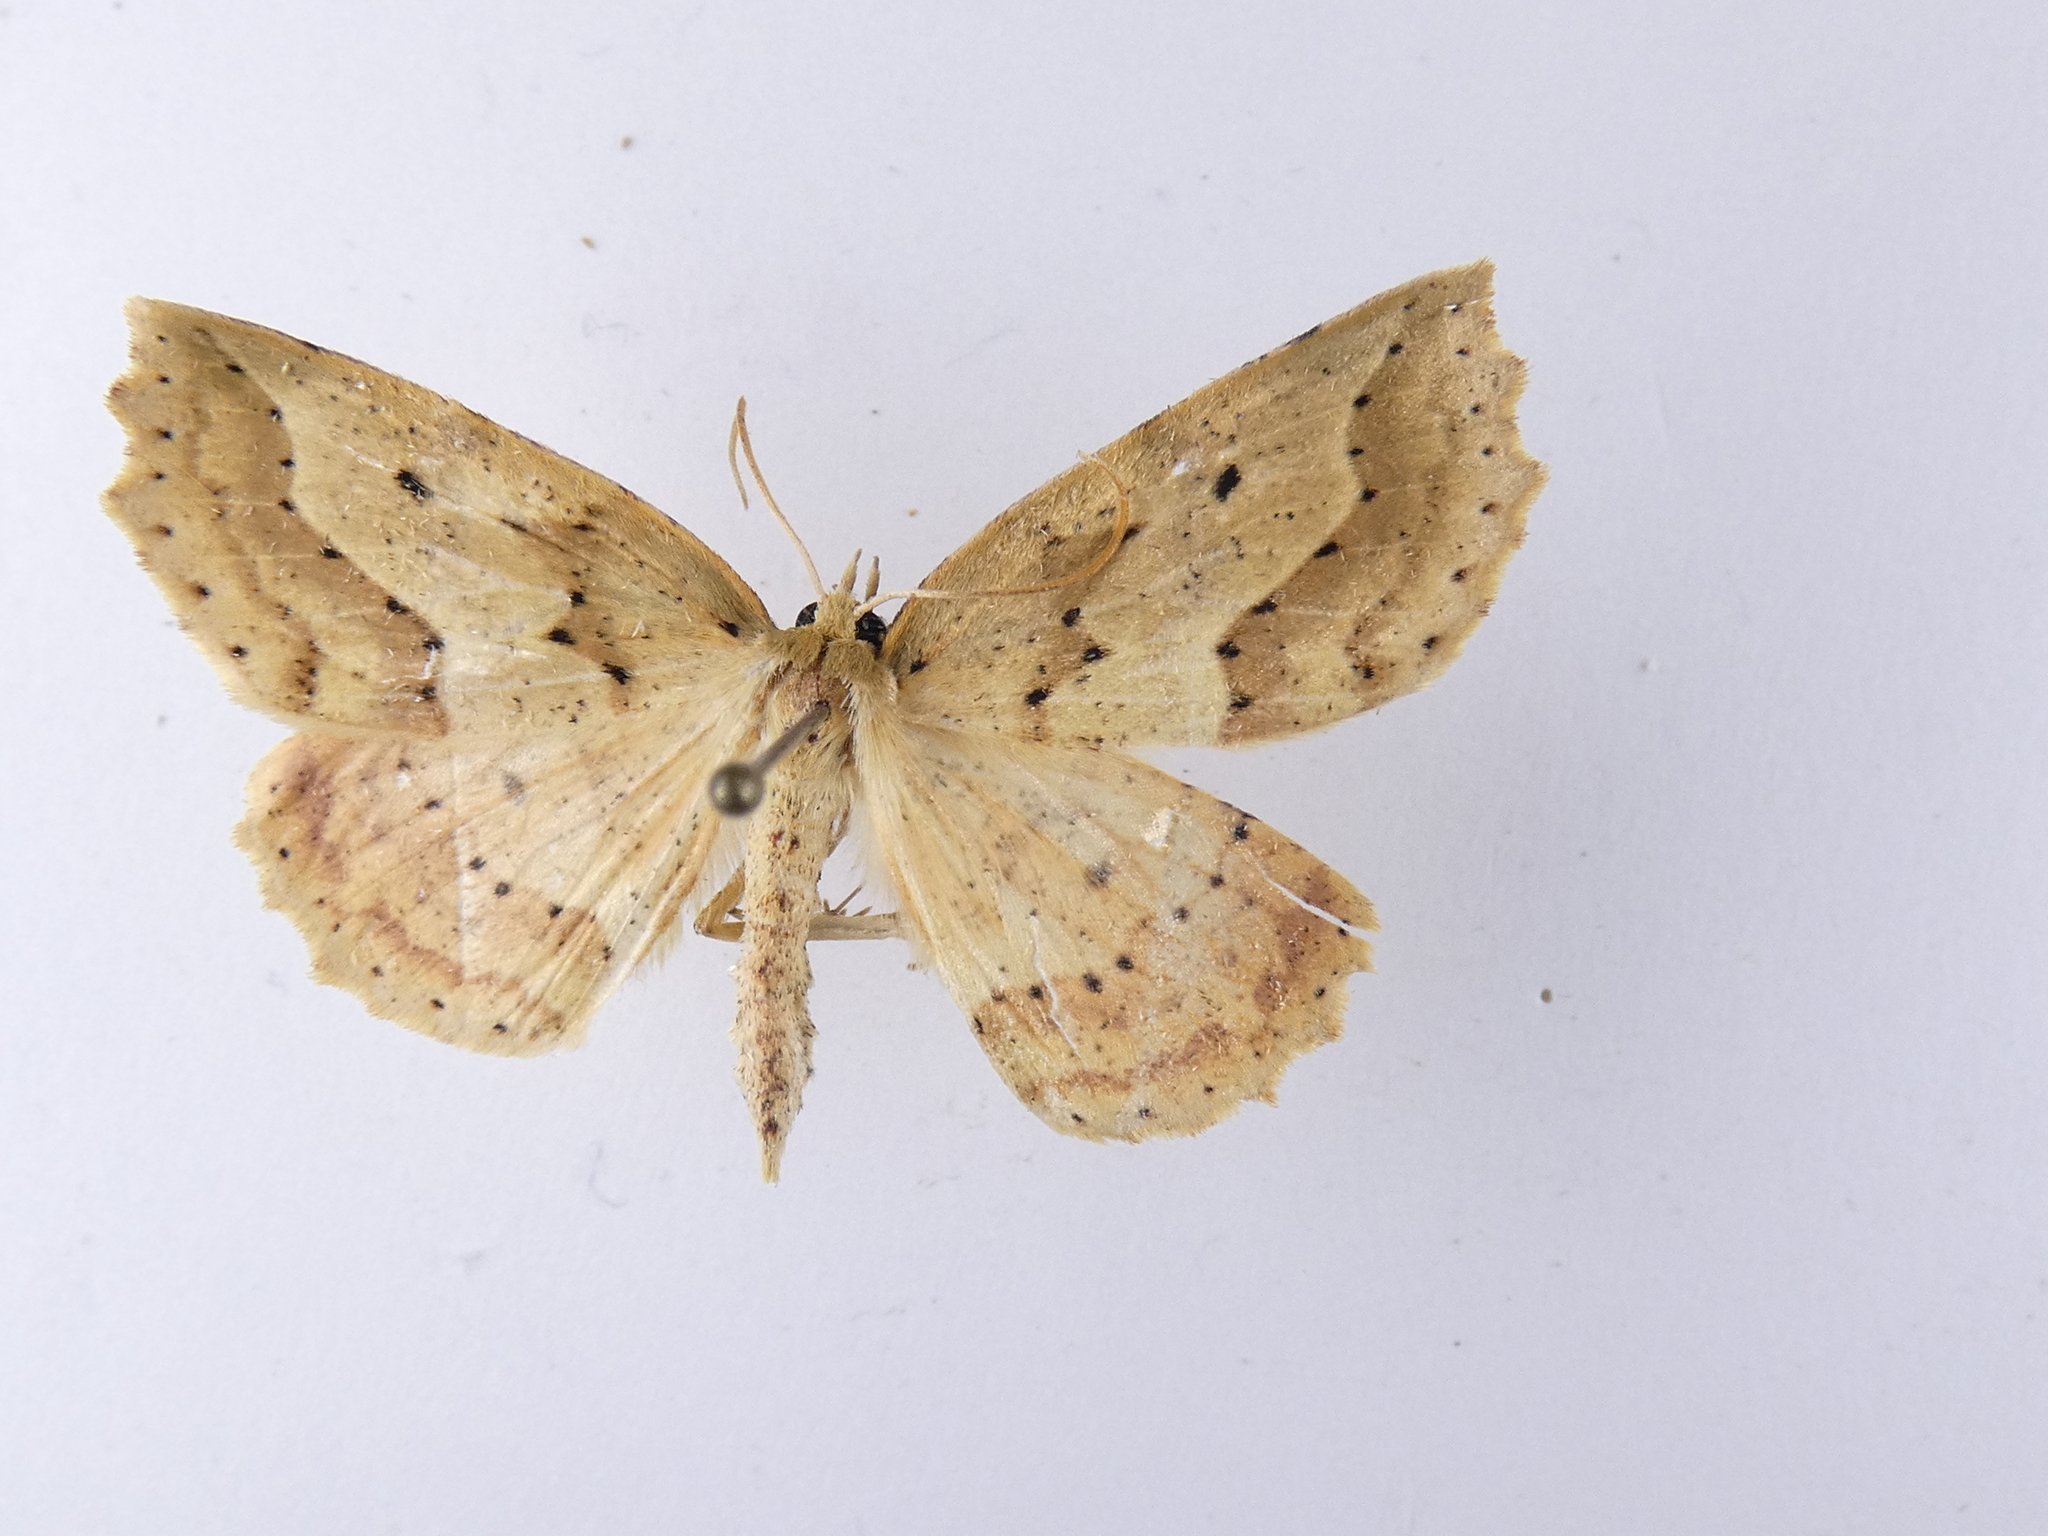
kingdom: Animalia
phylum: Arthropoda
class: Insecta
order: Lepidoptera
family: Geometridae
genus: Ischalis
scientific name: Ischalis variabilis
